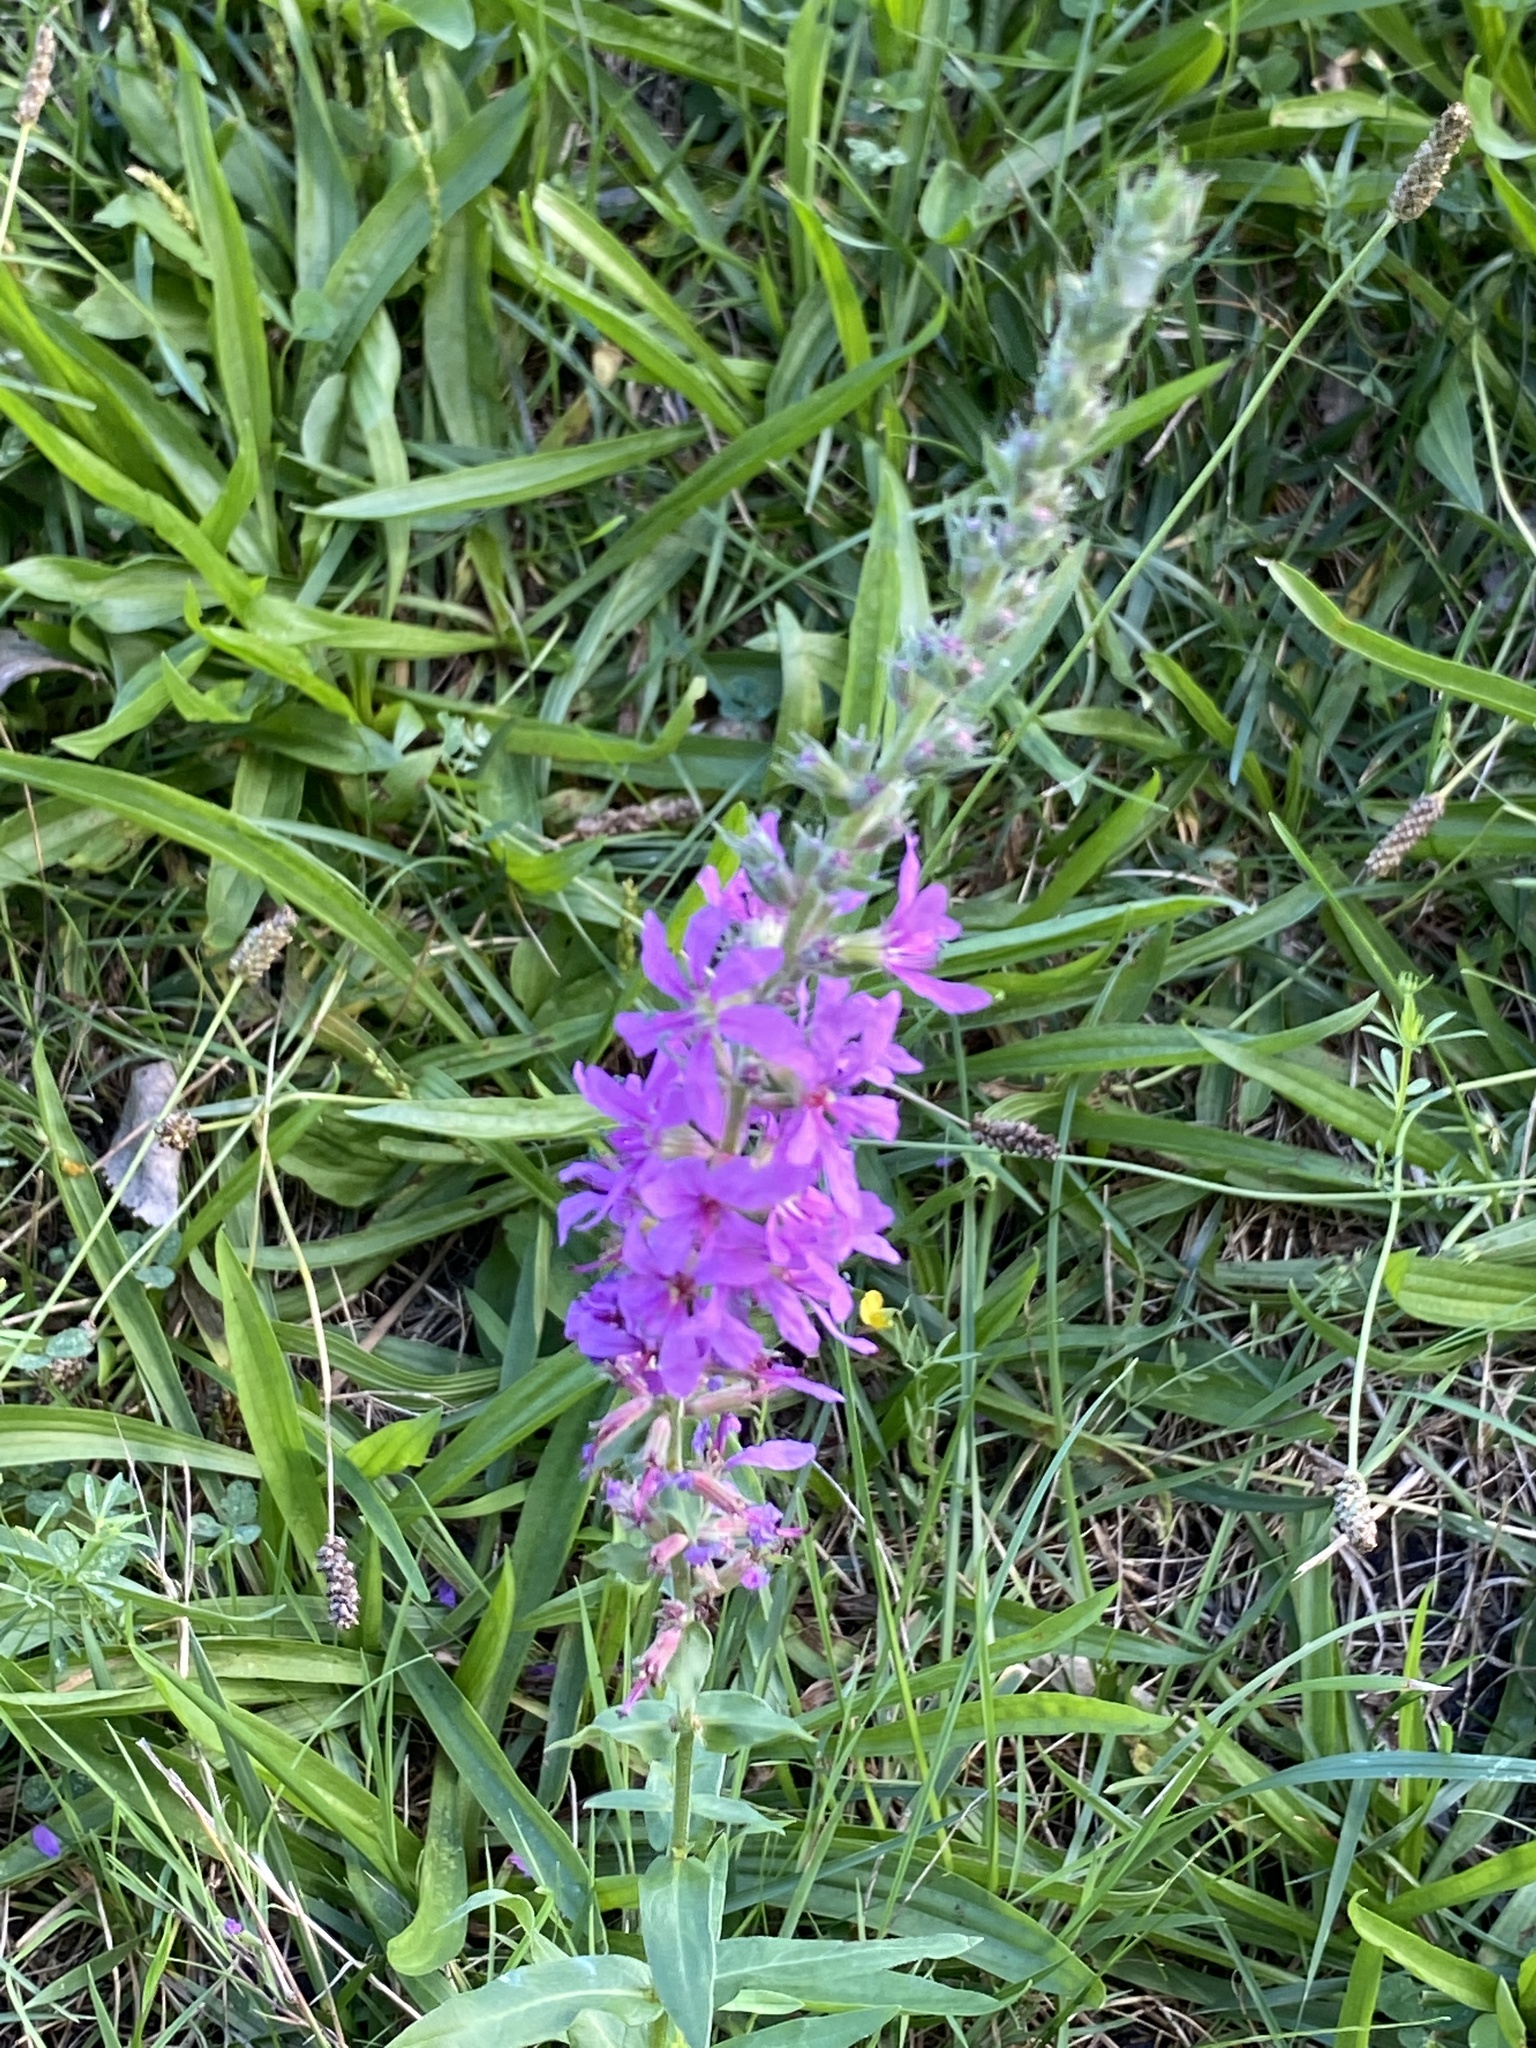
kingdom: Plantae
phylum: Tracheophyta
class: Magnoliopsida
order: Myrtales
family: Lythraceae
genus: Lythrum
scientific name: Lythrum salicaria
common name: Purple loosestrife
